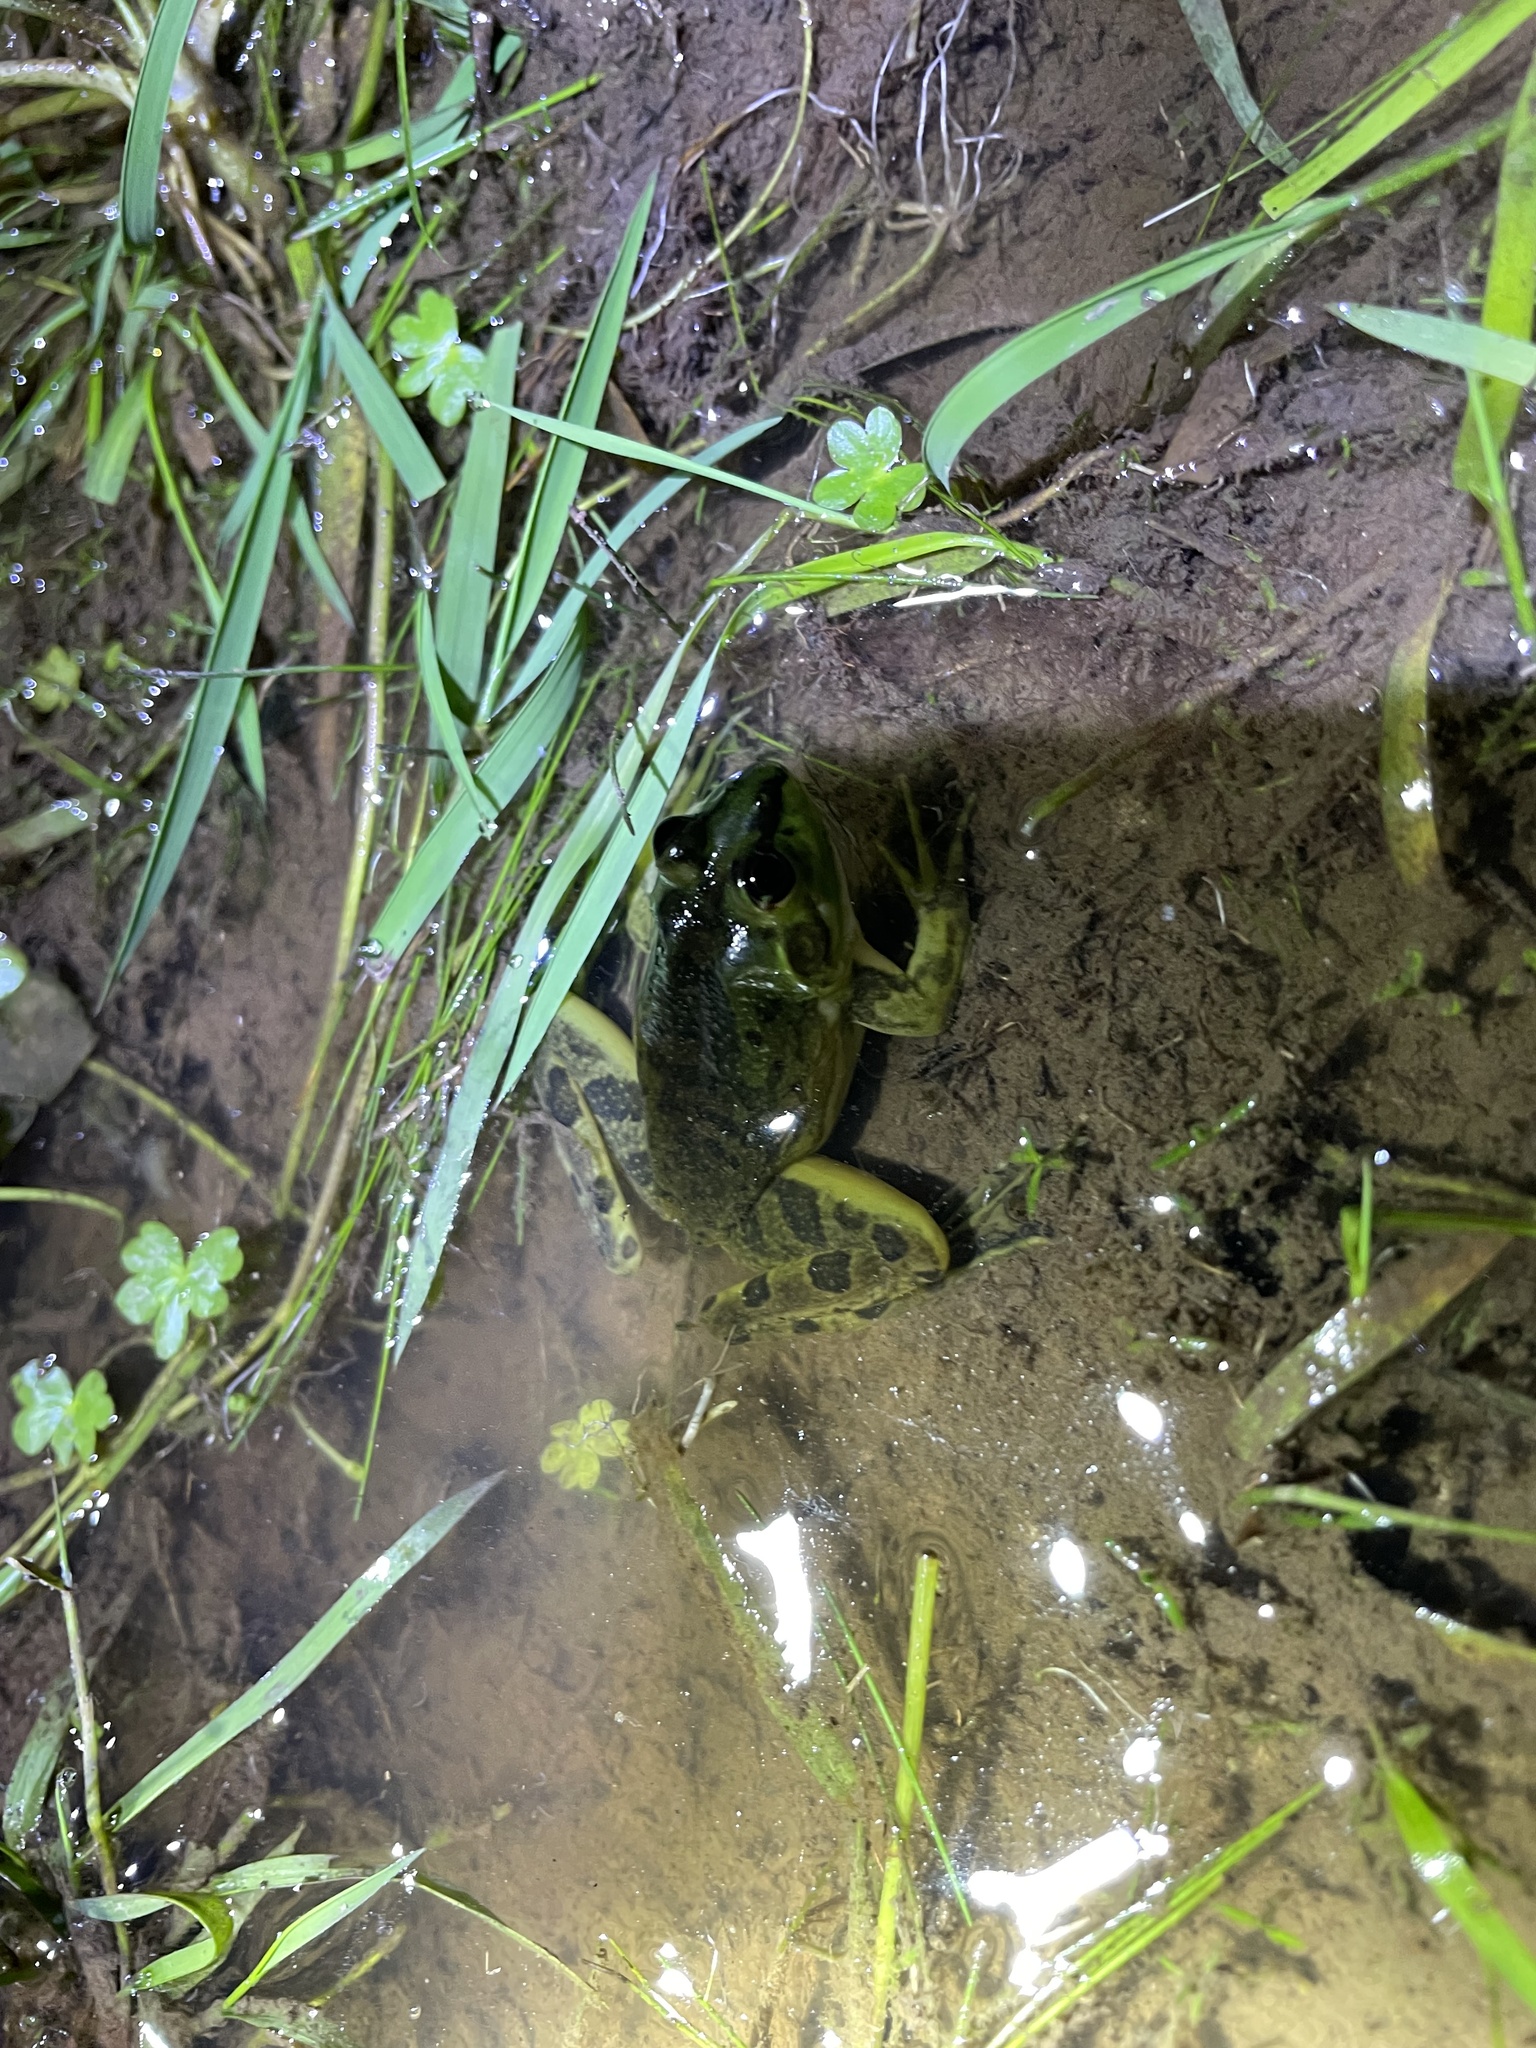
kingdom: Animalia
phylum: Chordata
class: Amphibia
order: Anura
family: Hylidae
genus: Pseudis
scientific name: Pseudis minuta
